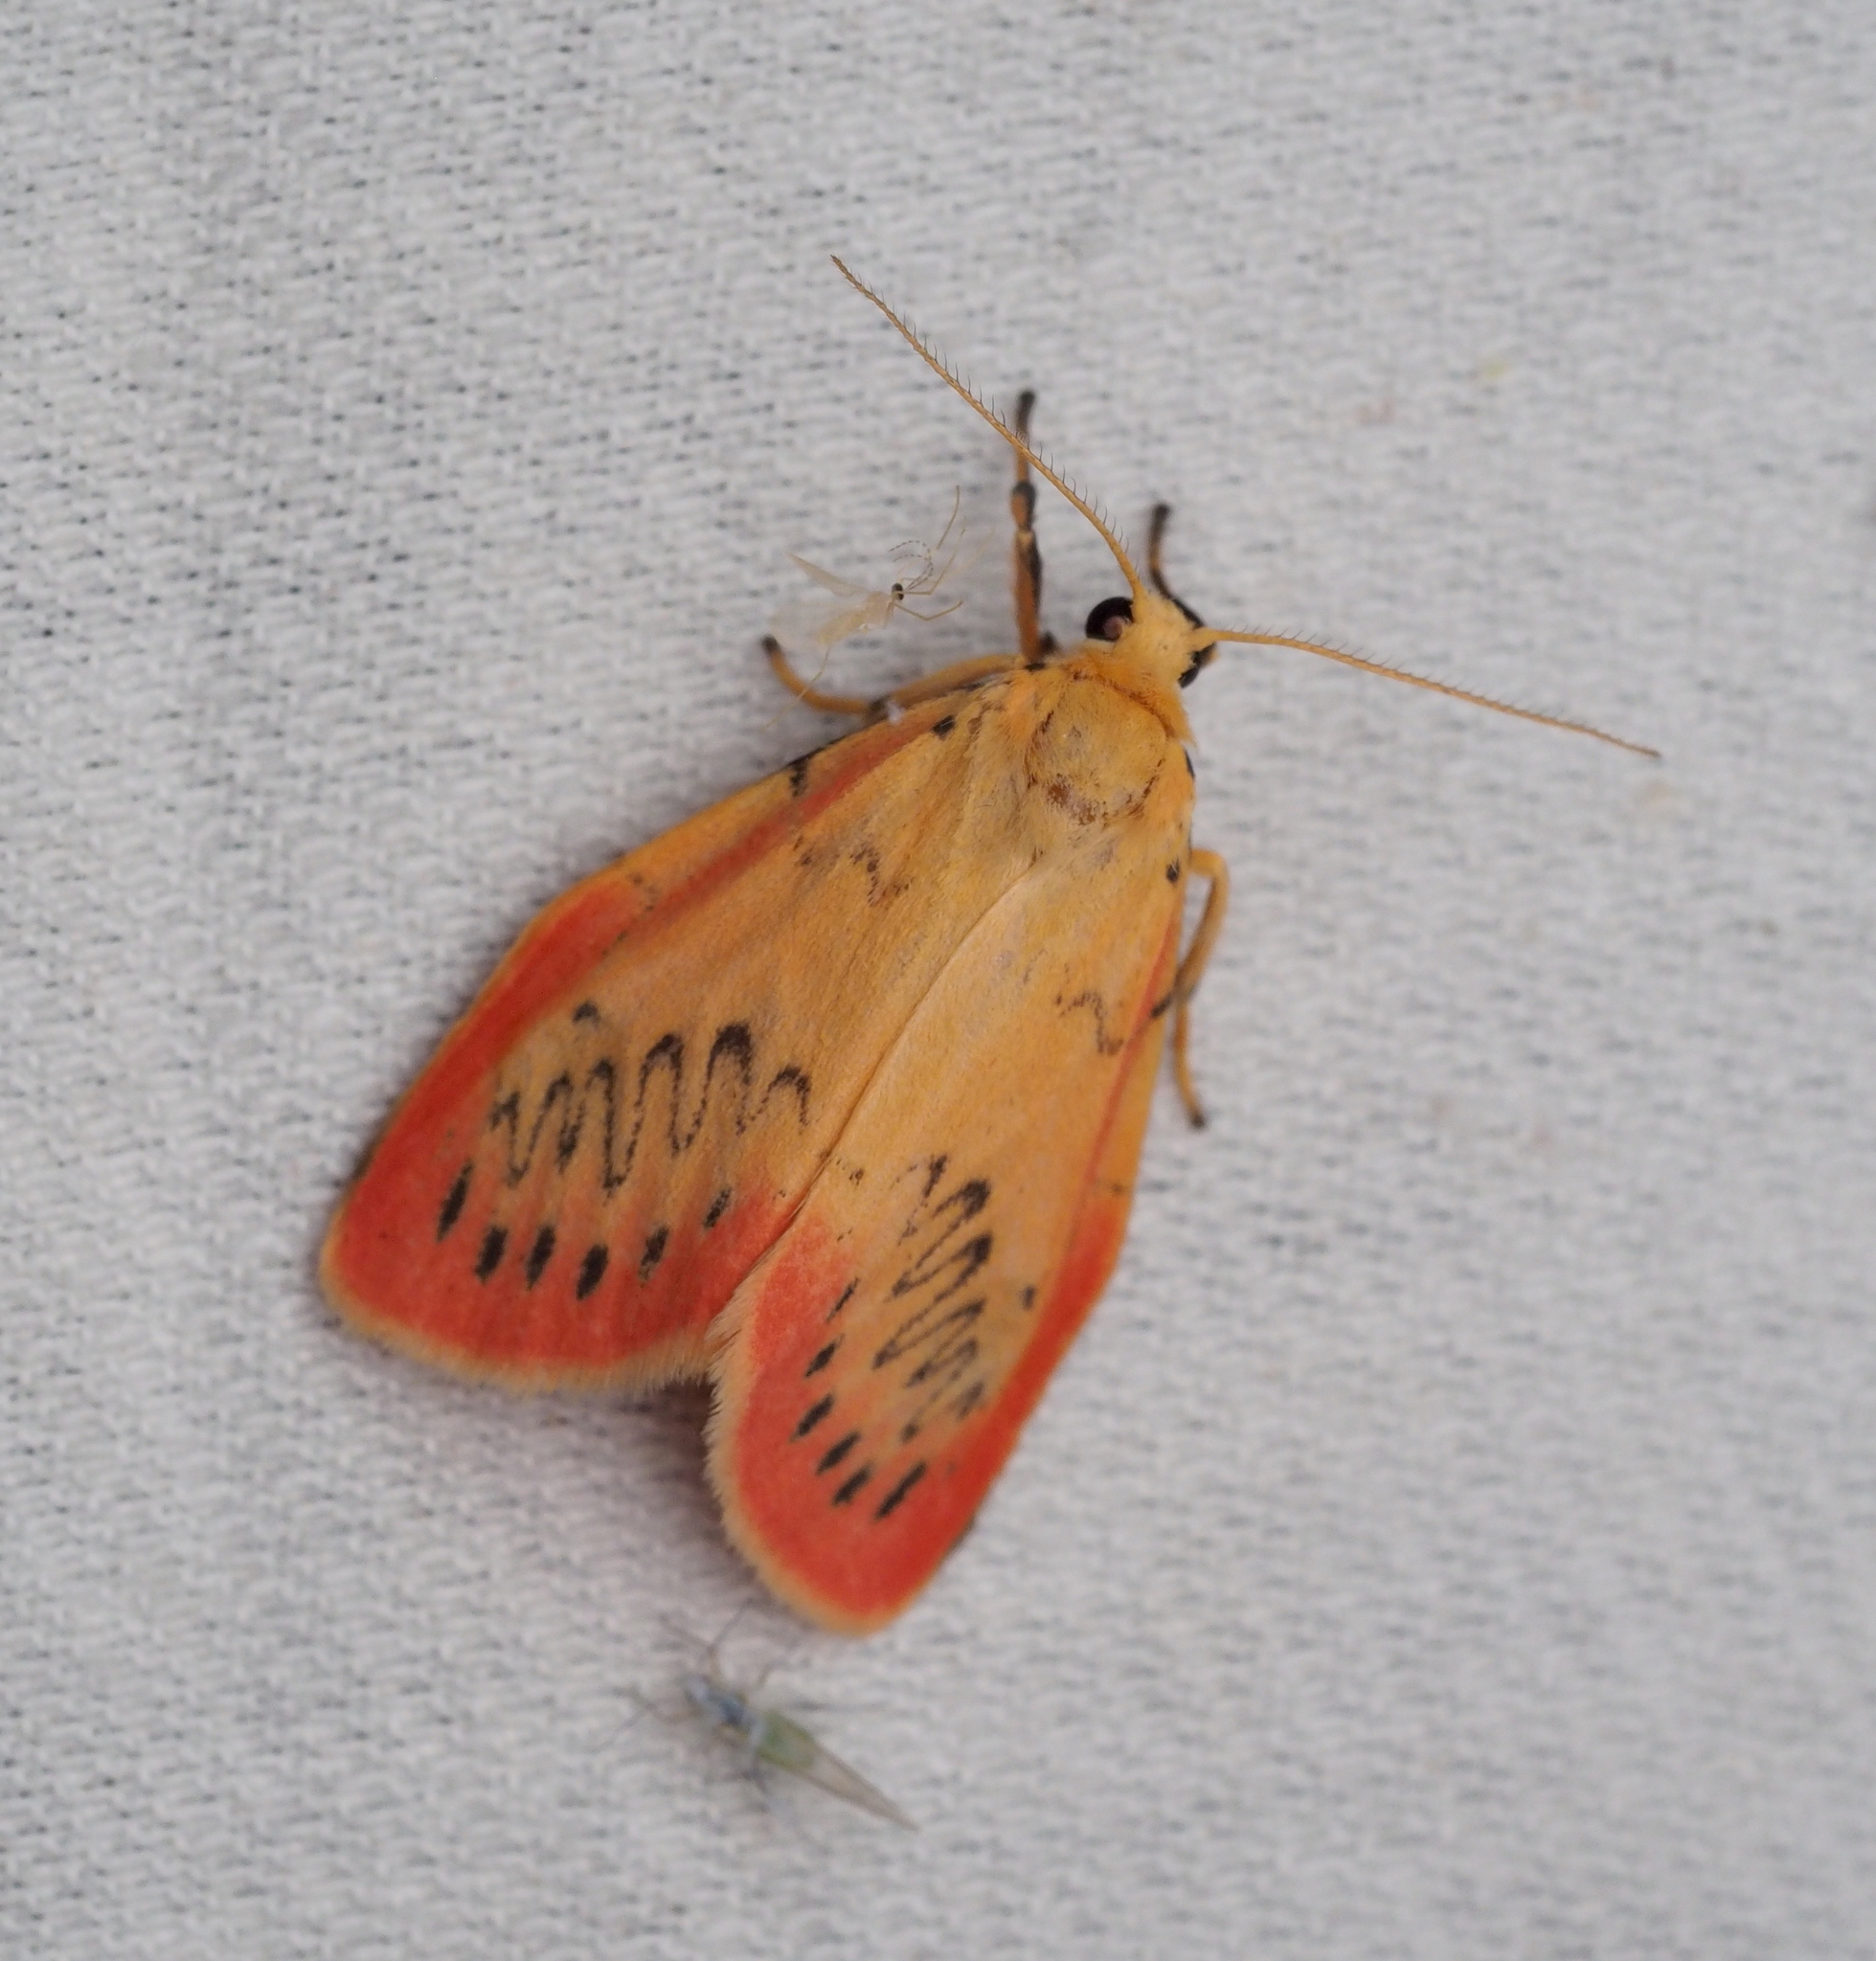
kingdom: Animalia
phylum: Arthropoda
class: Insecta
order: Lepidoptera
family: Erebidae
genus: Miltochrista
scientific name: Miltochrista miniata
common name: Rosy footman
